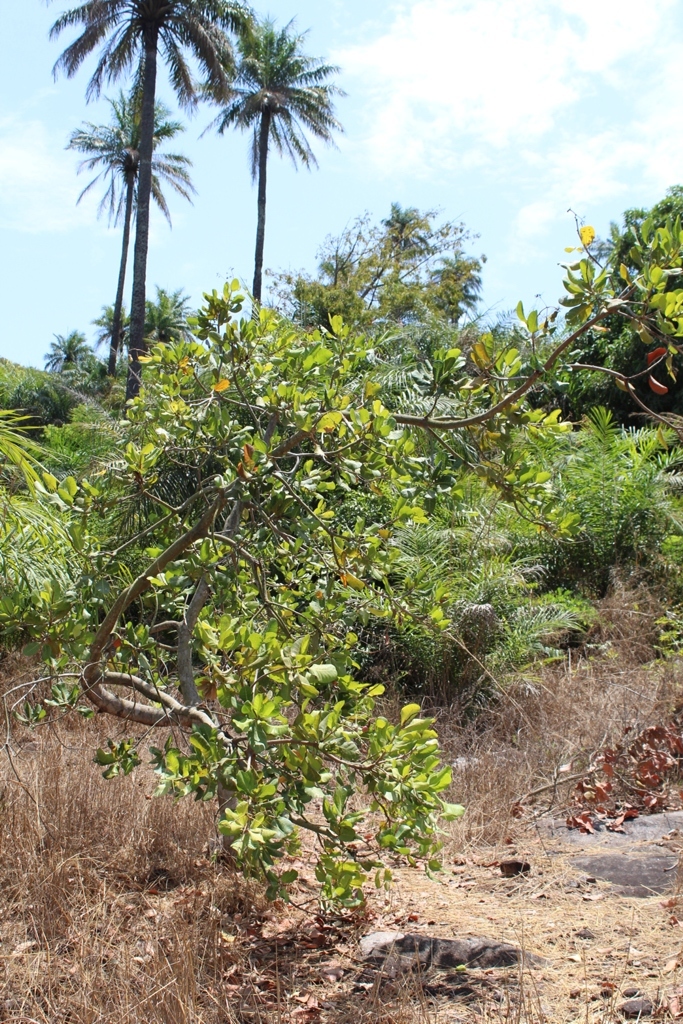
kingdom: Plantae
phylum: Tracheophyta
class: Magnoliopsida
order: Sapindales
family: Anacardiaceae
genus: Anacardium
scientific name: Anacardium occidentale
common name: Cashew
